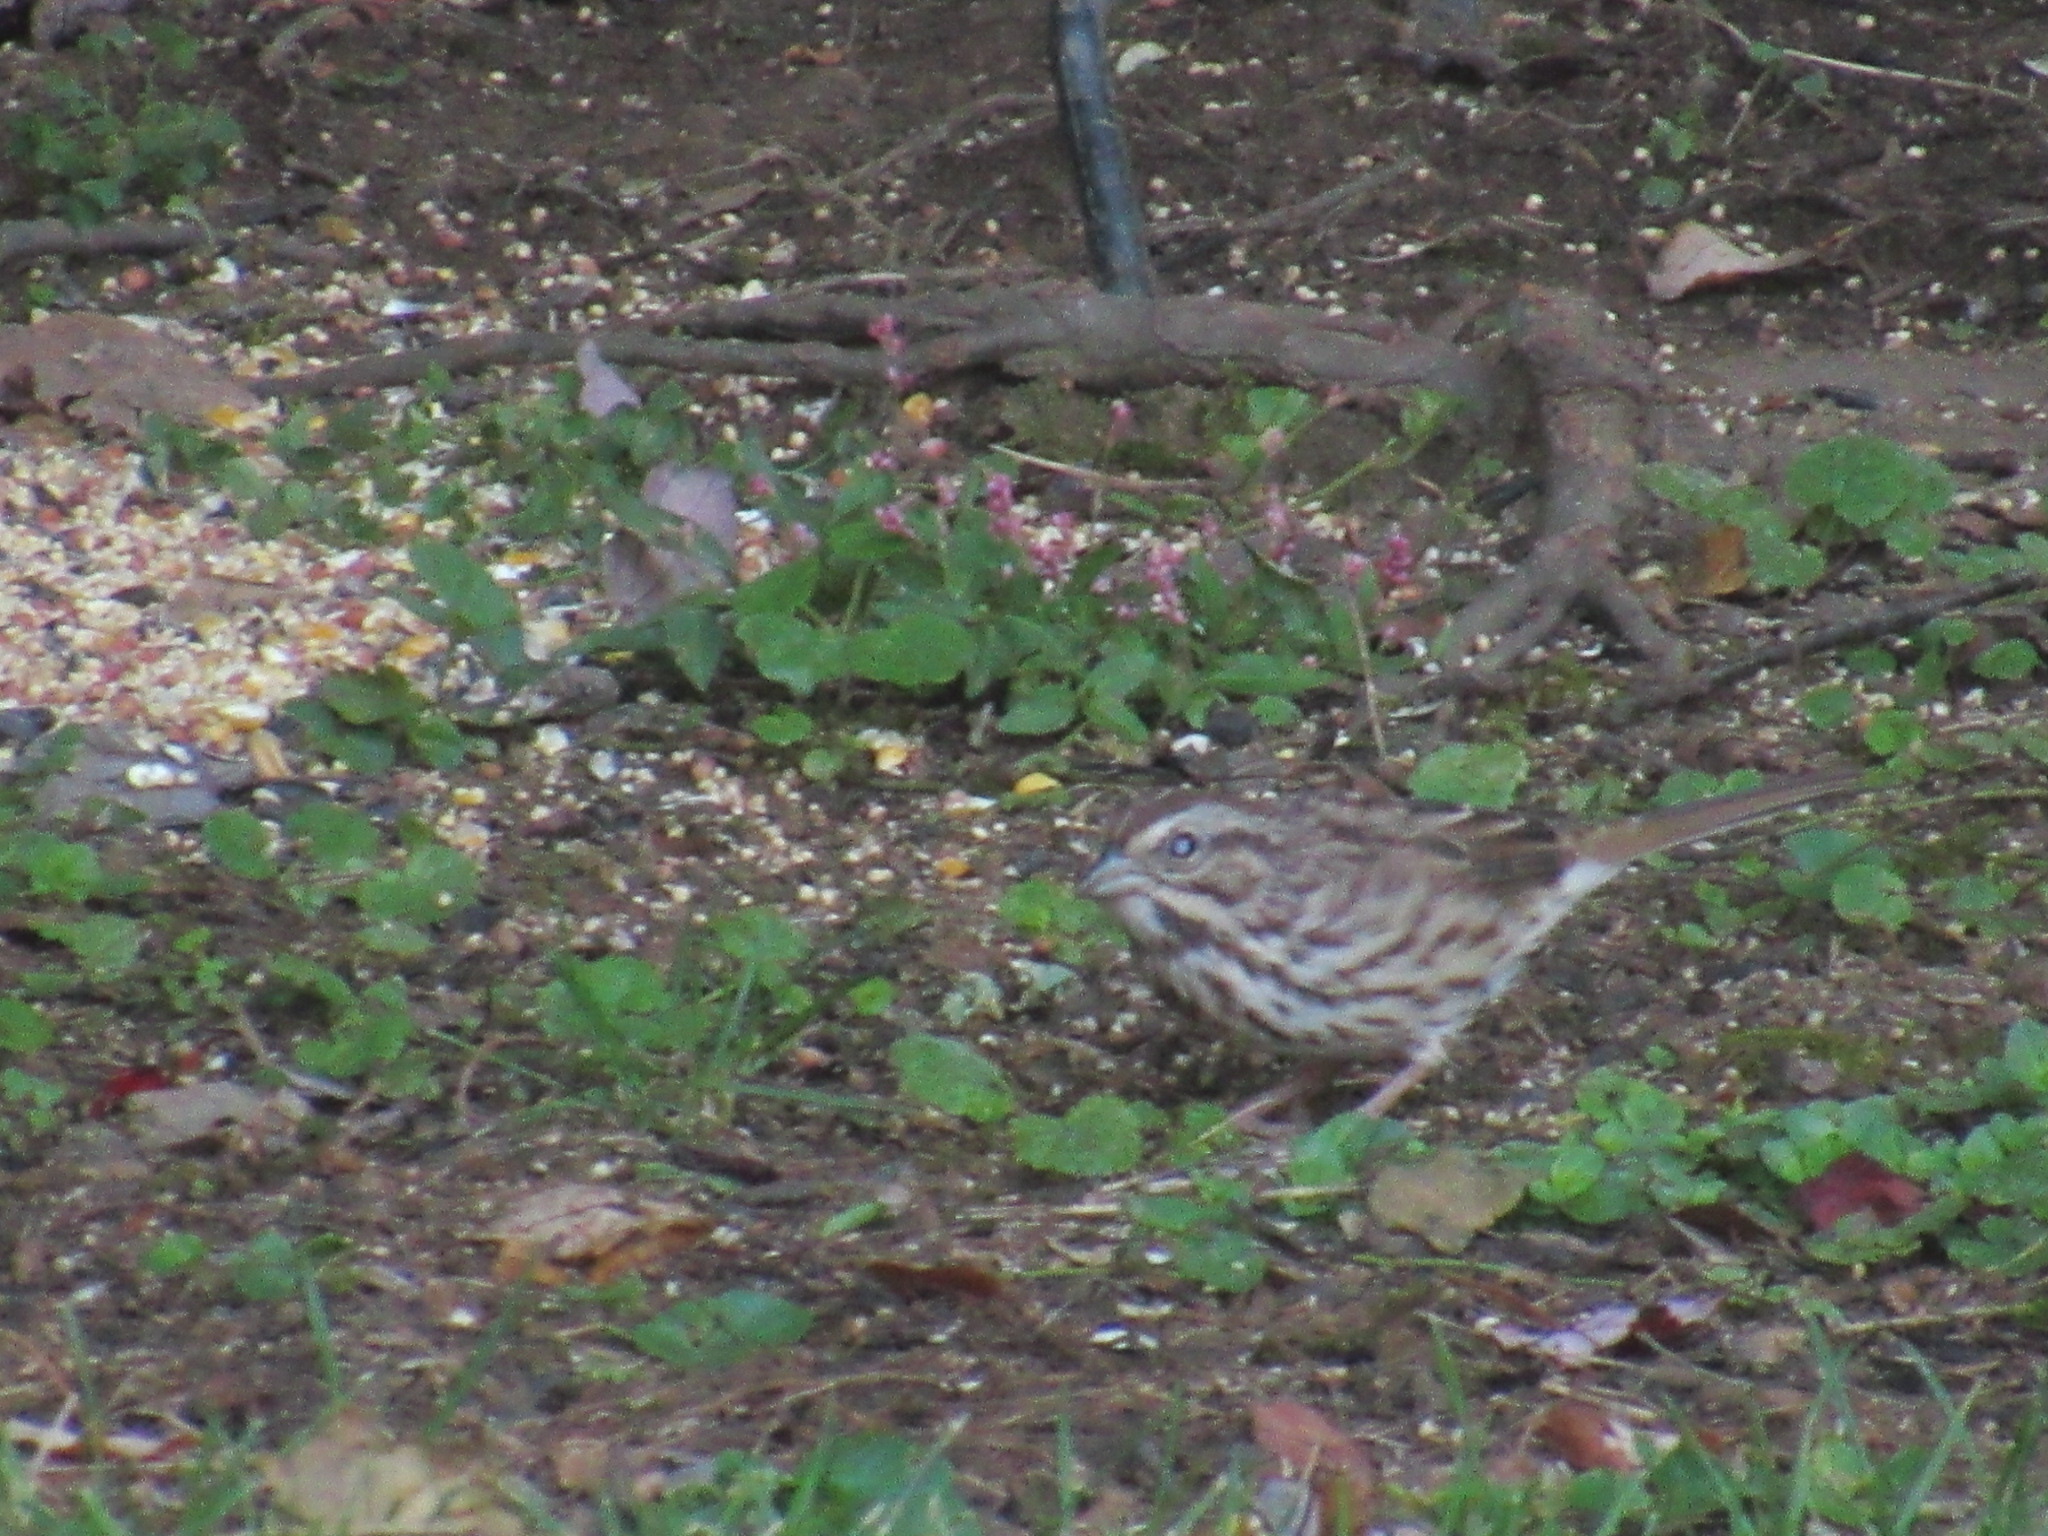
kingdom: Animalia
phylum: Chordata
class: Aves
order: Passeriformes
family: Passerellidae
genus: Melospiza
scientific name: Melospiza melodia
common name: Song sparrow
